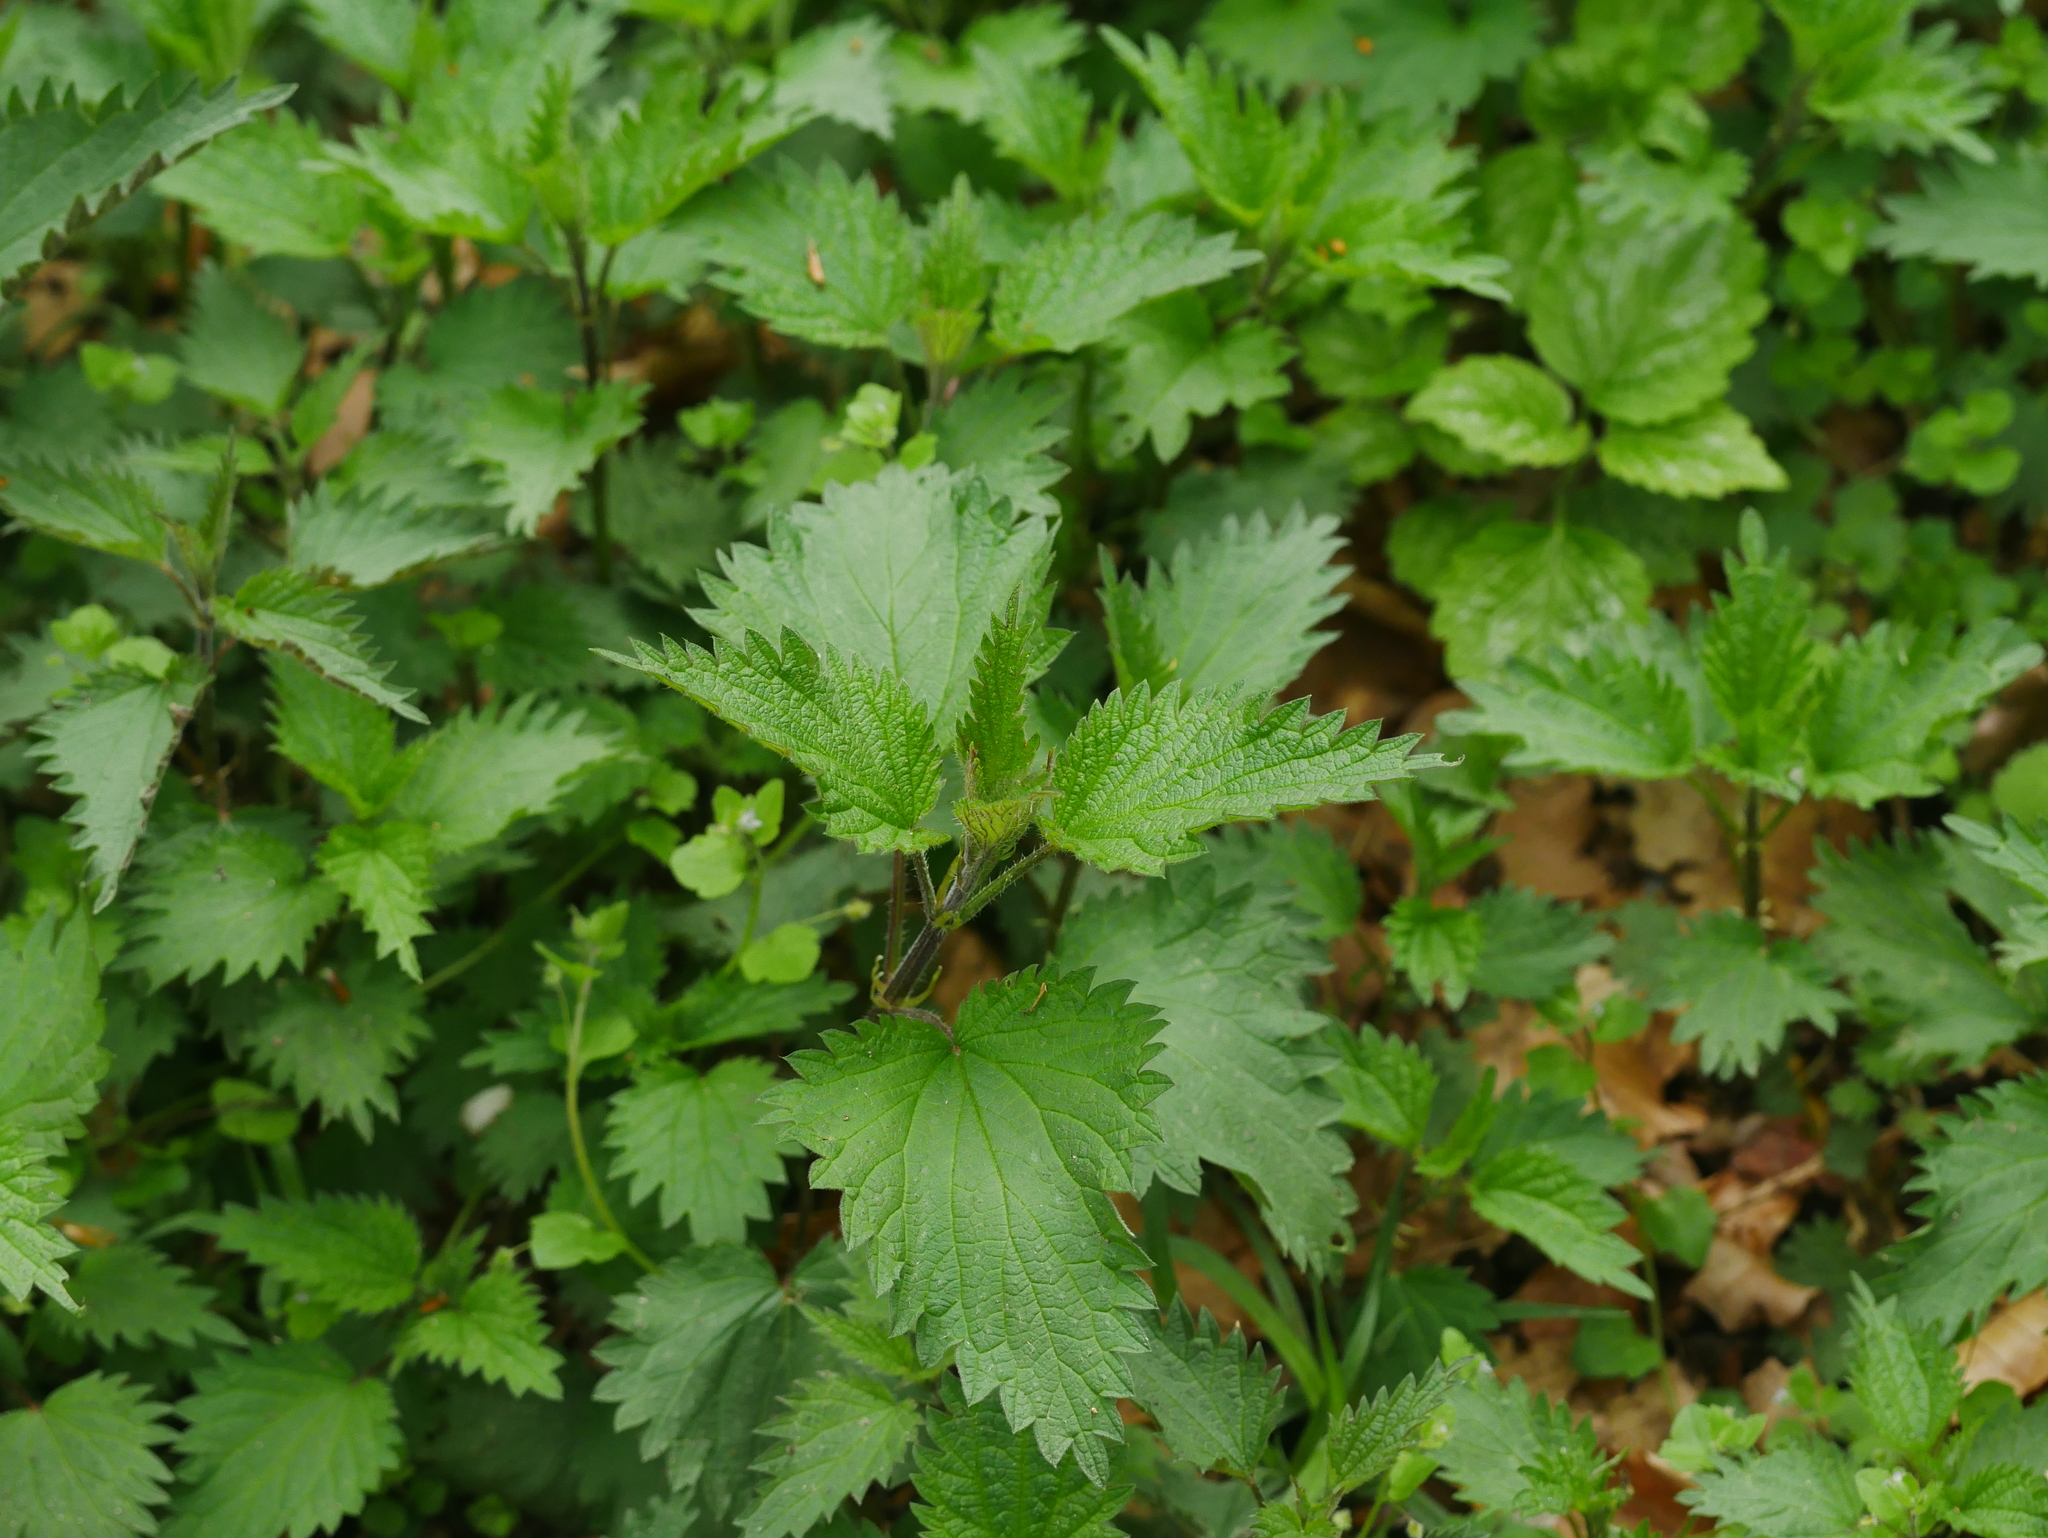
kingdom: Plantae
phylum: Tracheophyta
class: Magnoliopsida
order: Rosales
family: Urticaceae
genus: Urtica
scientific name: Urtica dioica
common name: Common nettle
